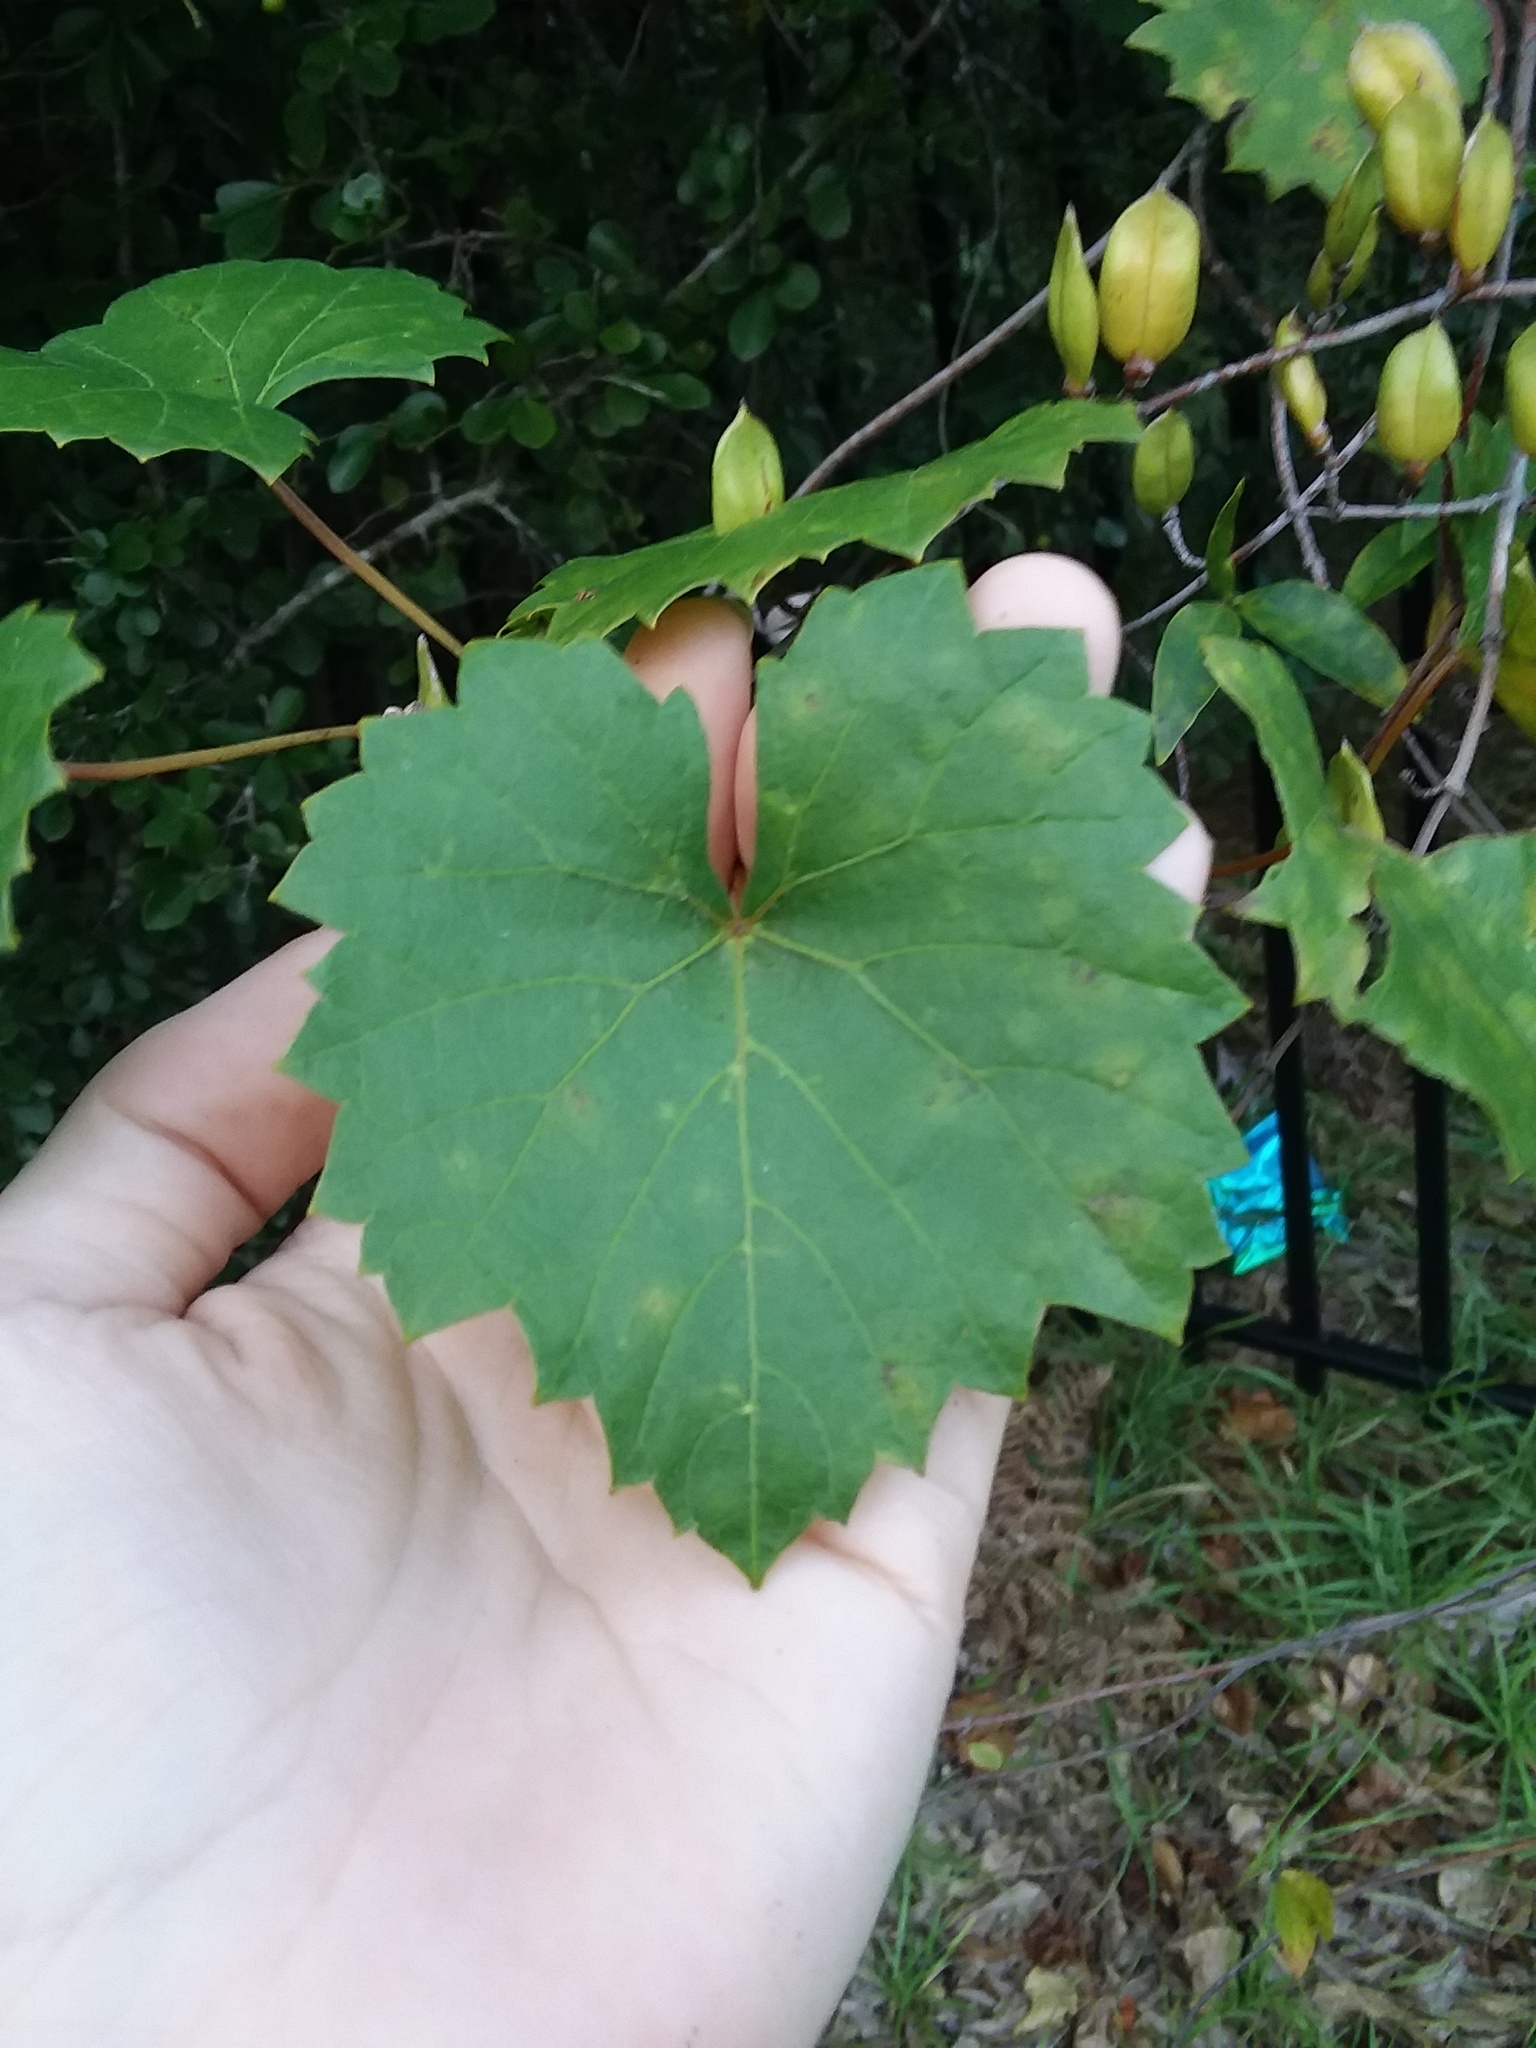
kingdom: Plantae
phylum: Tracheophyta
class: Magnoliopsida
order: Vitales
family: Vitaceae
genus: Vitis
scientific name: Vitis rotundifolia
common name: Muscadine grape
